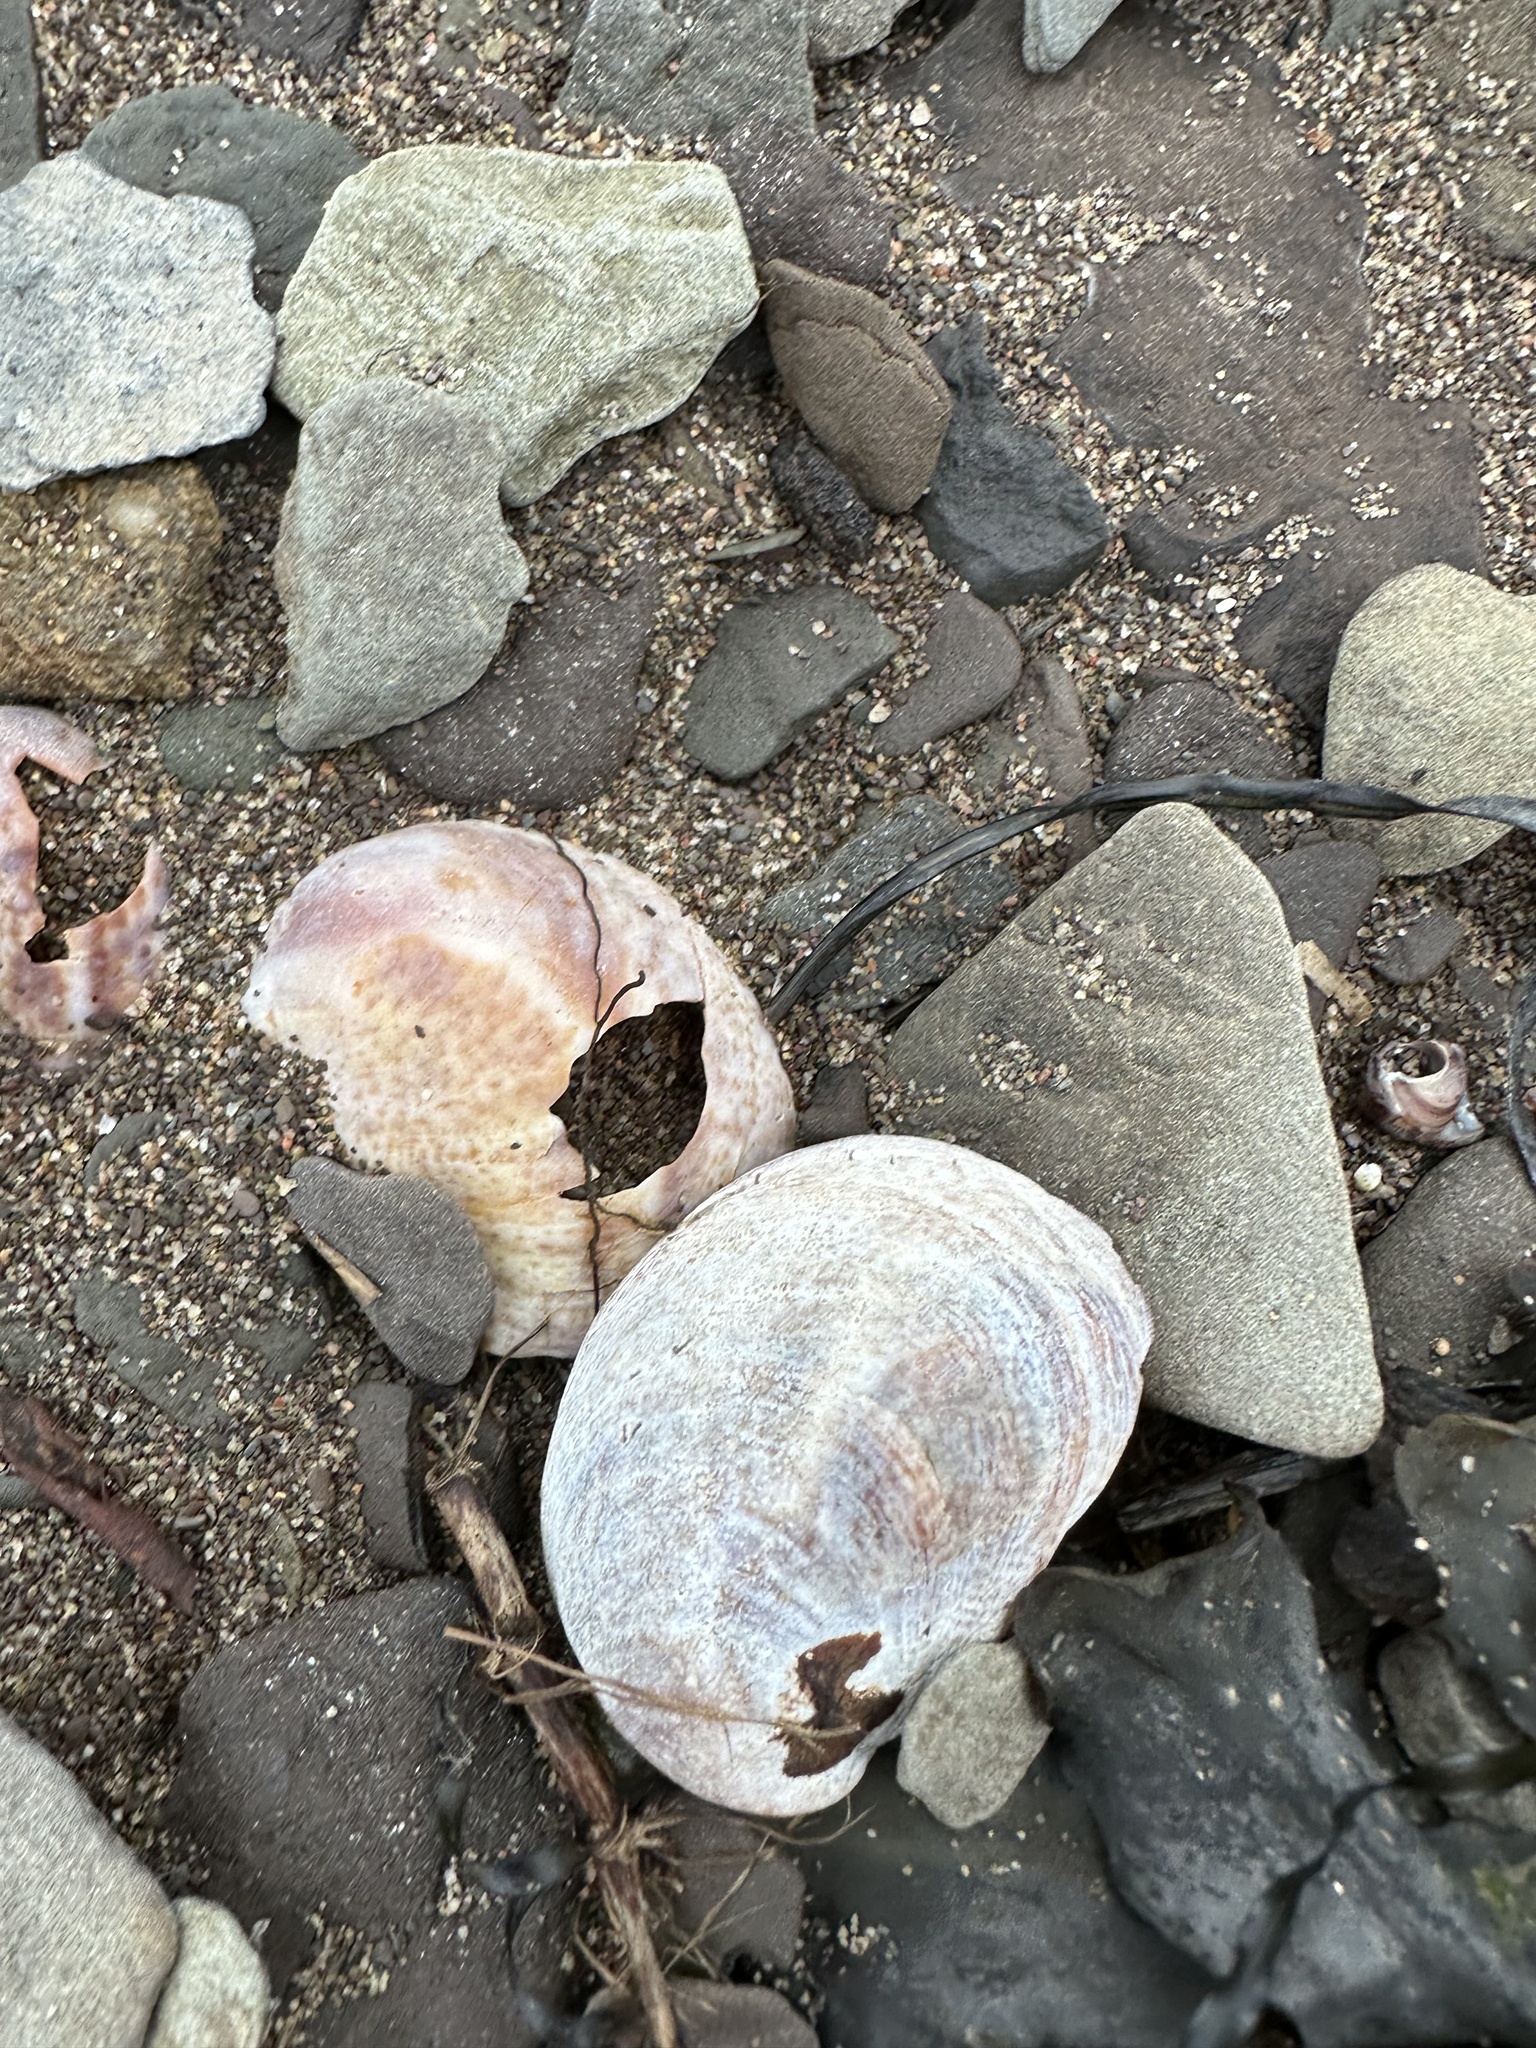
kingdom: Animalia
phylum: Mollusca
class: Gastropoda
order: Littorinimorpha
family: Calyptraeidae
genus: Crepidula
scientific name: Crepidula fornicata
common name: Slipper limpet
